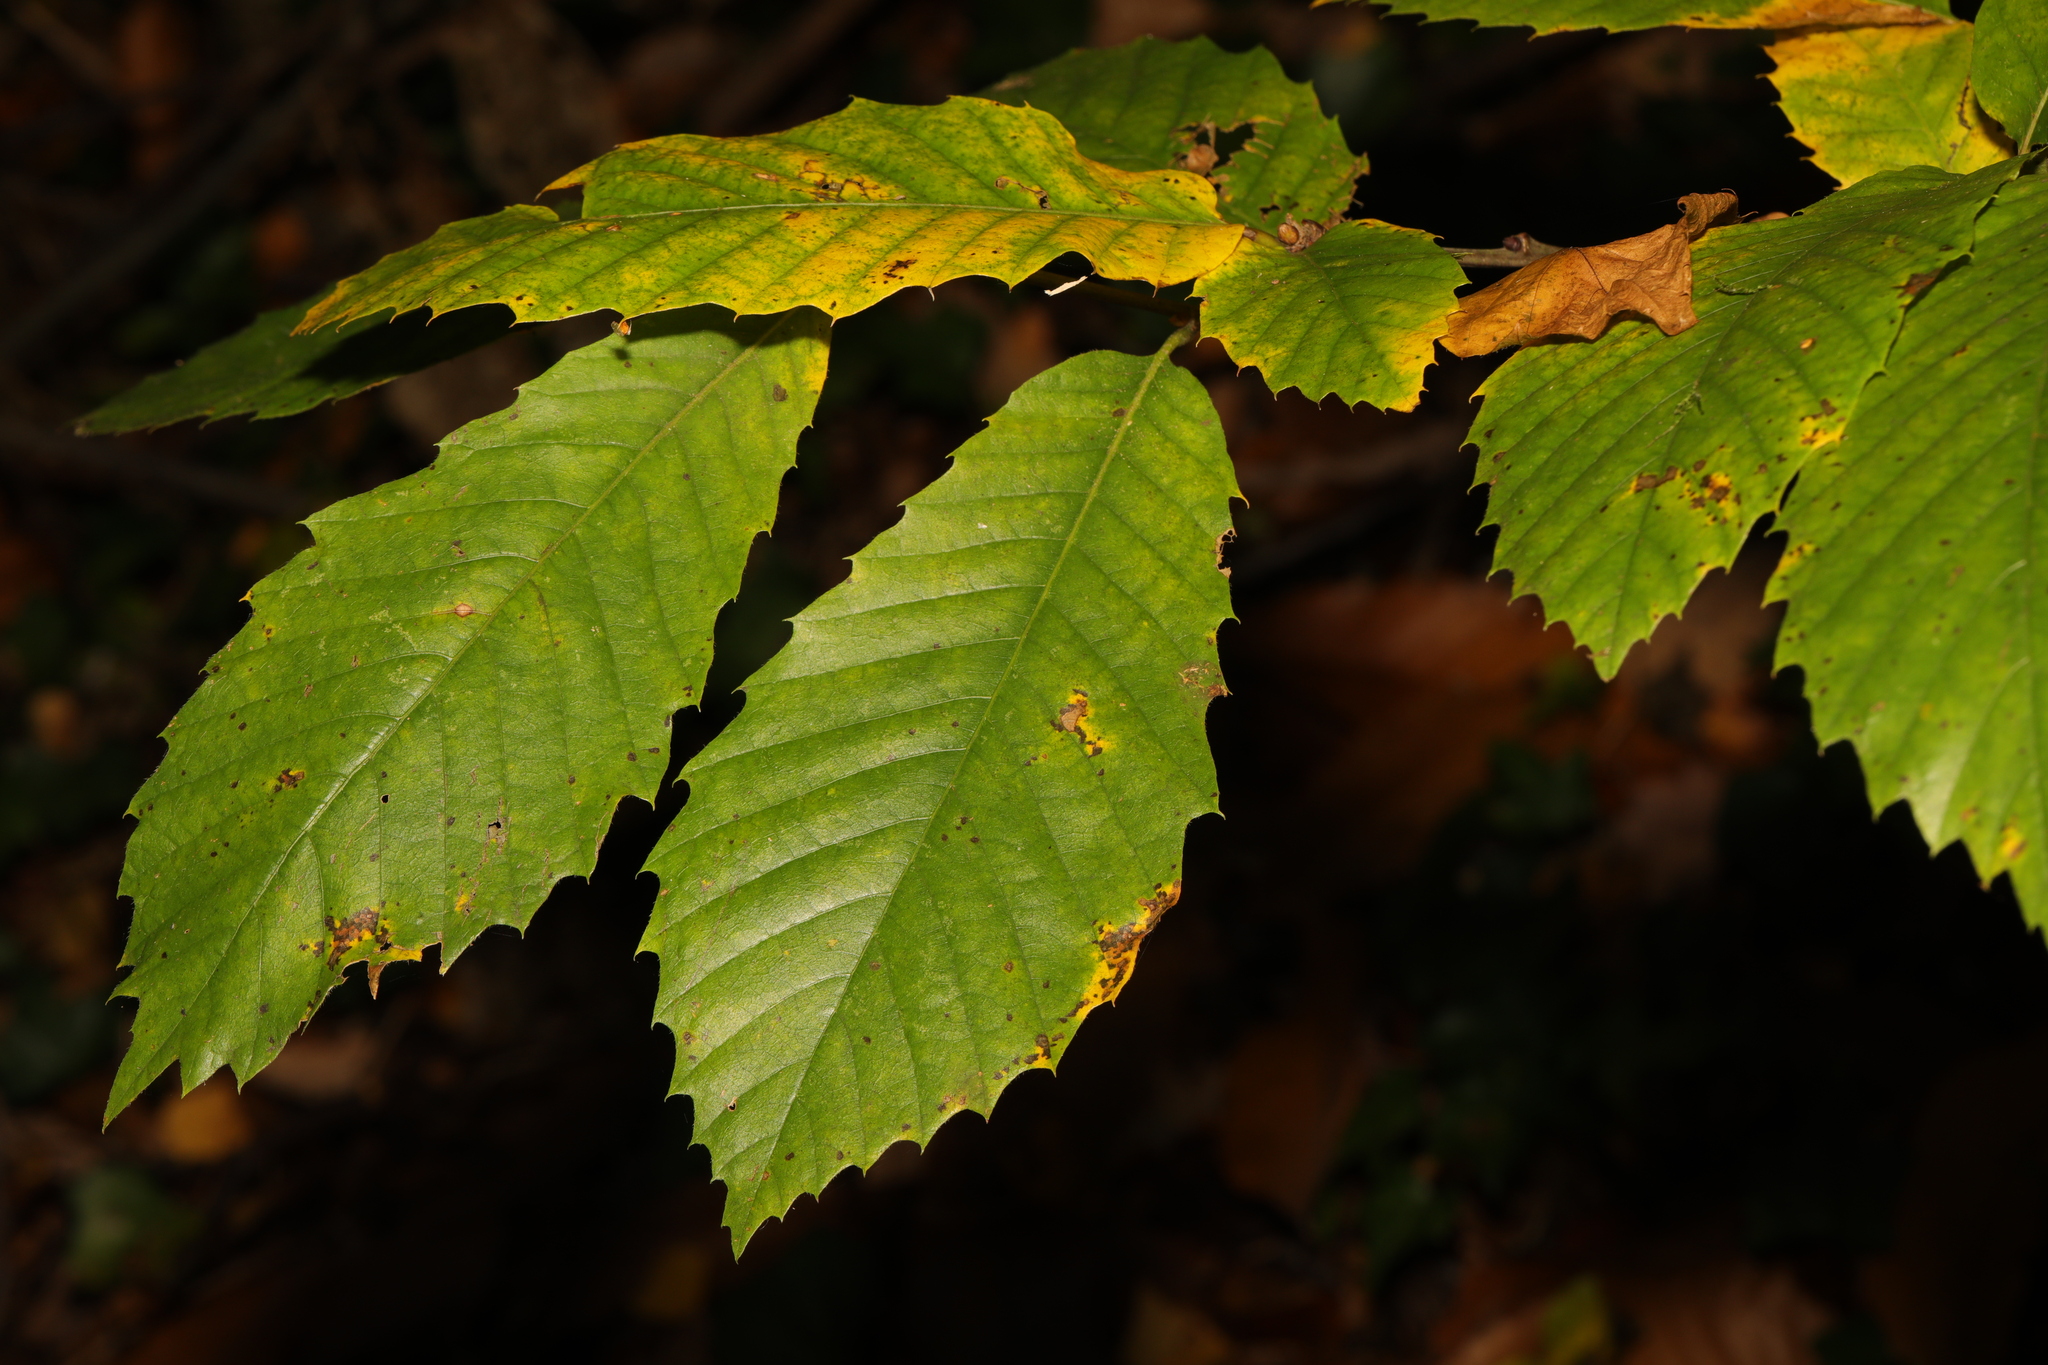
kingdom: Plantae
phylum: Tracheophyta
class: Magnoliopsida
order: Fagales
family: Fagaceae
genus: Castanea
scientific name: Castanea sativa
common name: Sweet chestnut
